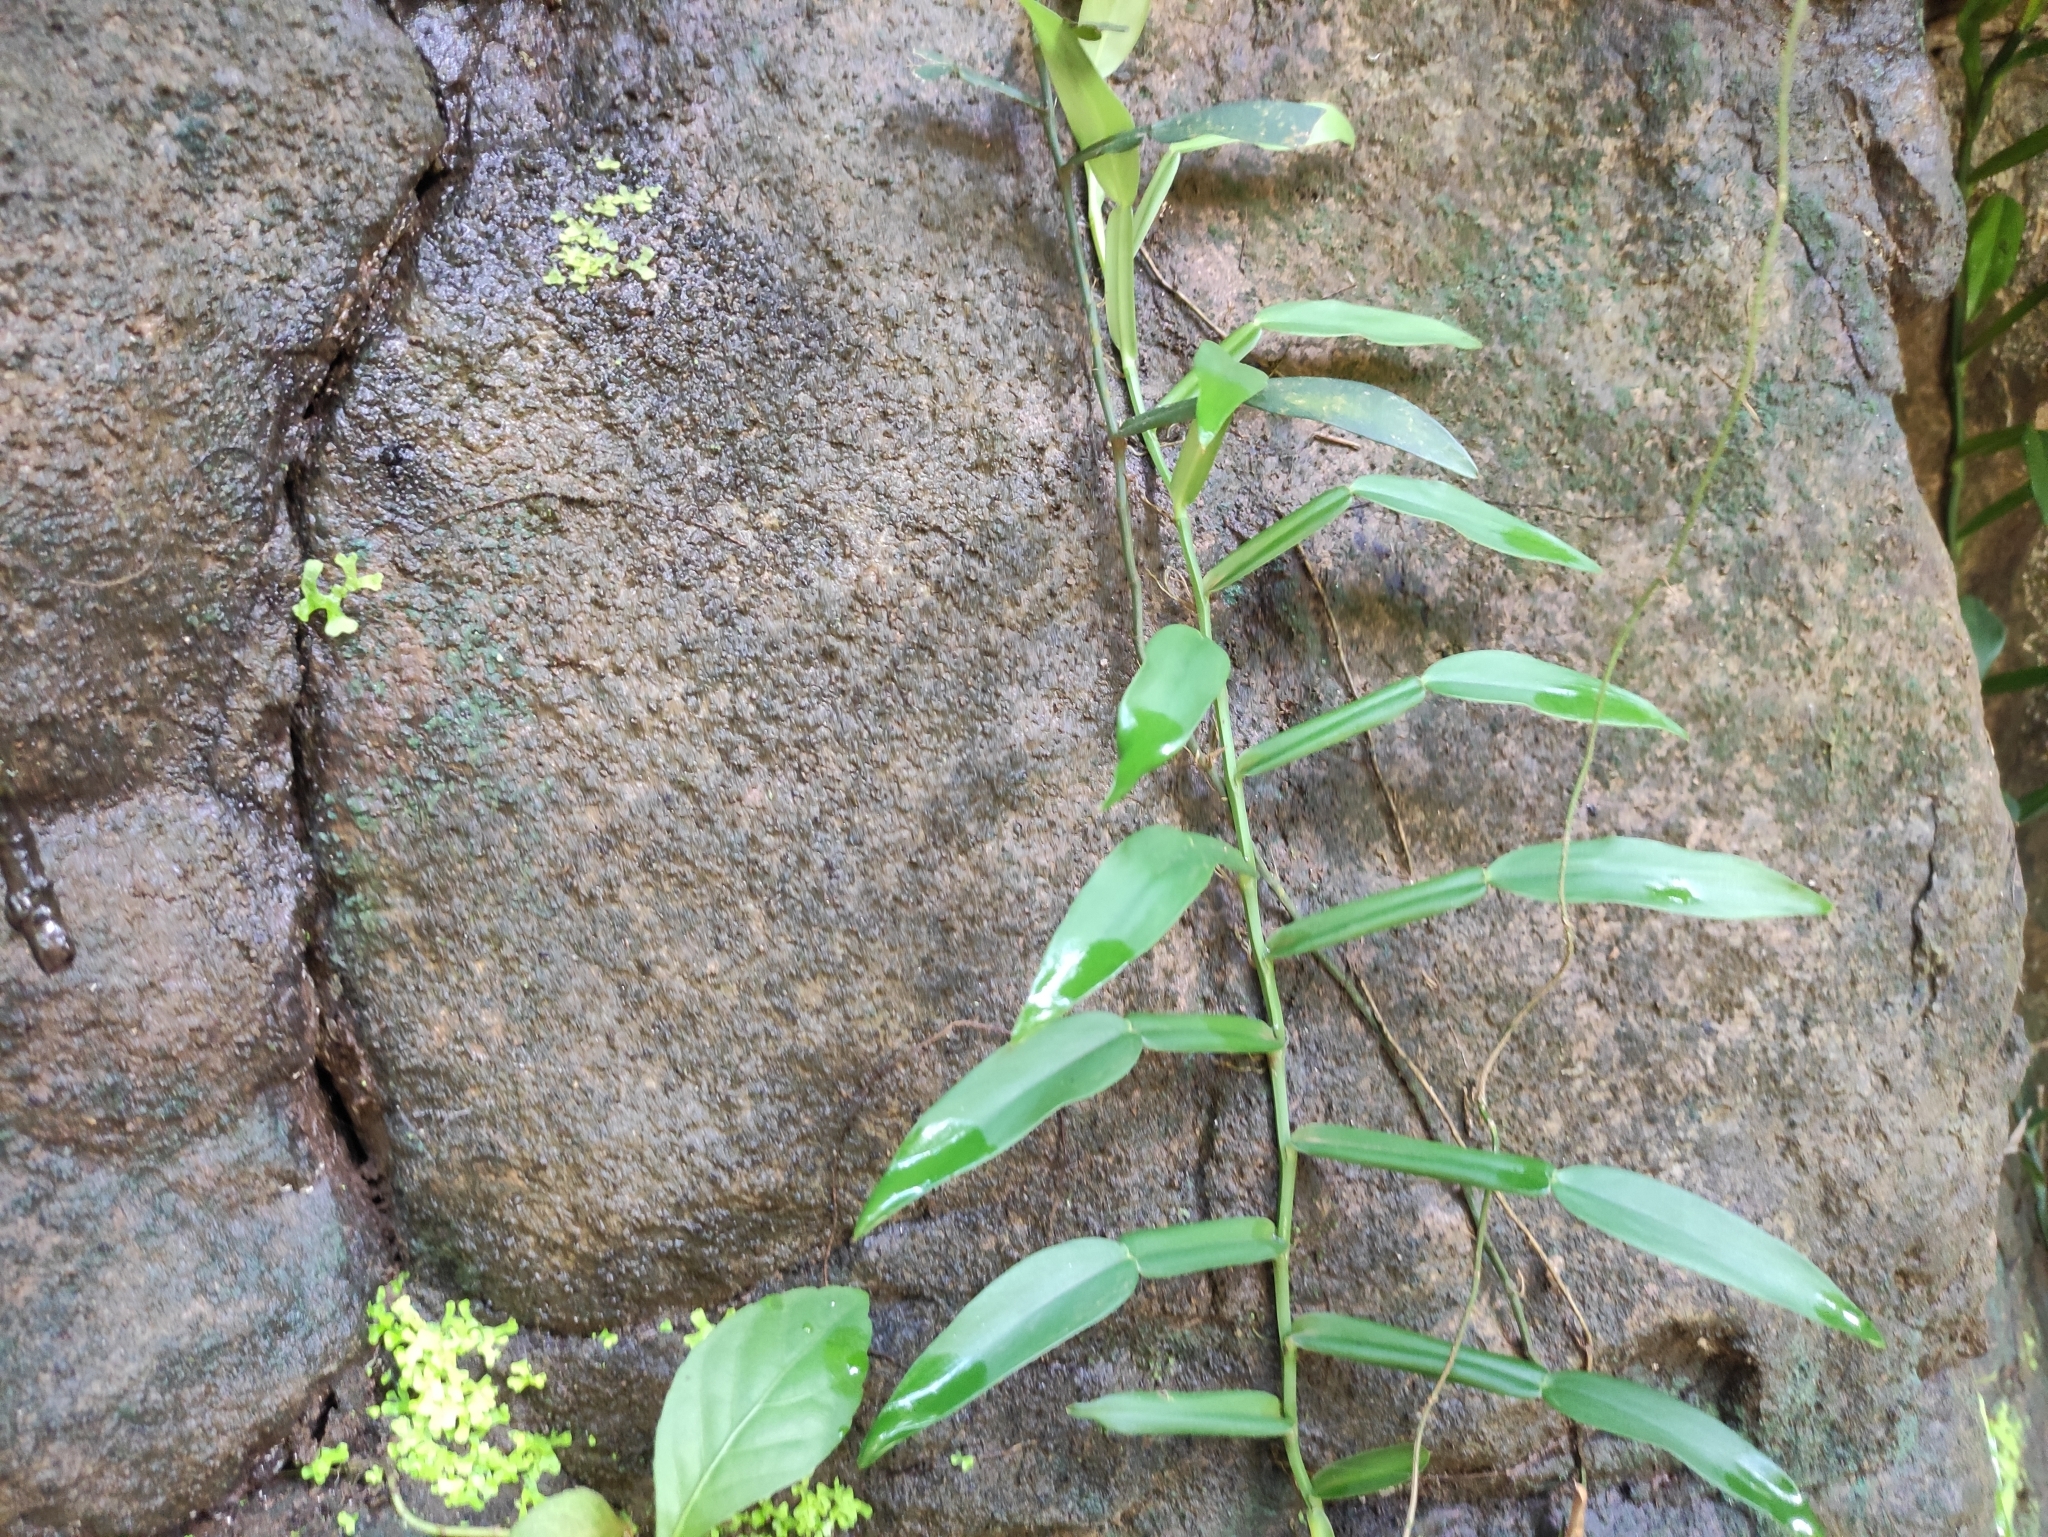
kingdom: Plantae
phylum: Tracheophyta
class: Liliopsida
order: Alismatales
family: Araceae
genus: Pothos
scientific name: Pothos scandens
